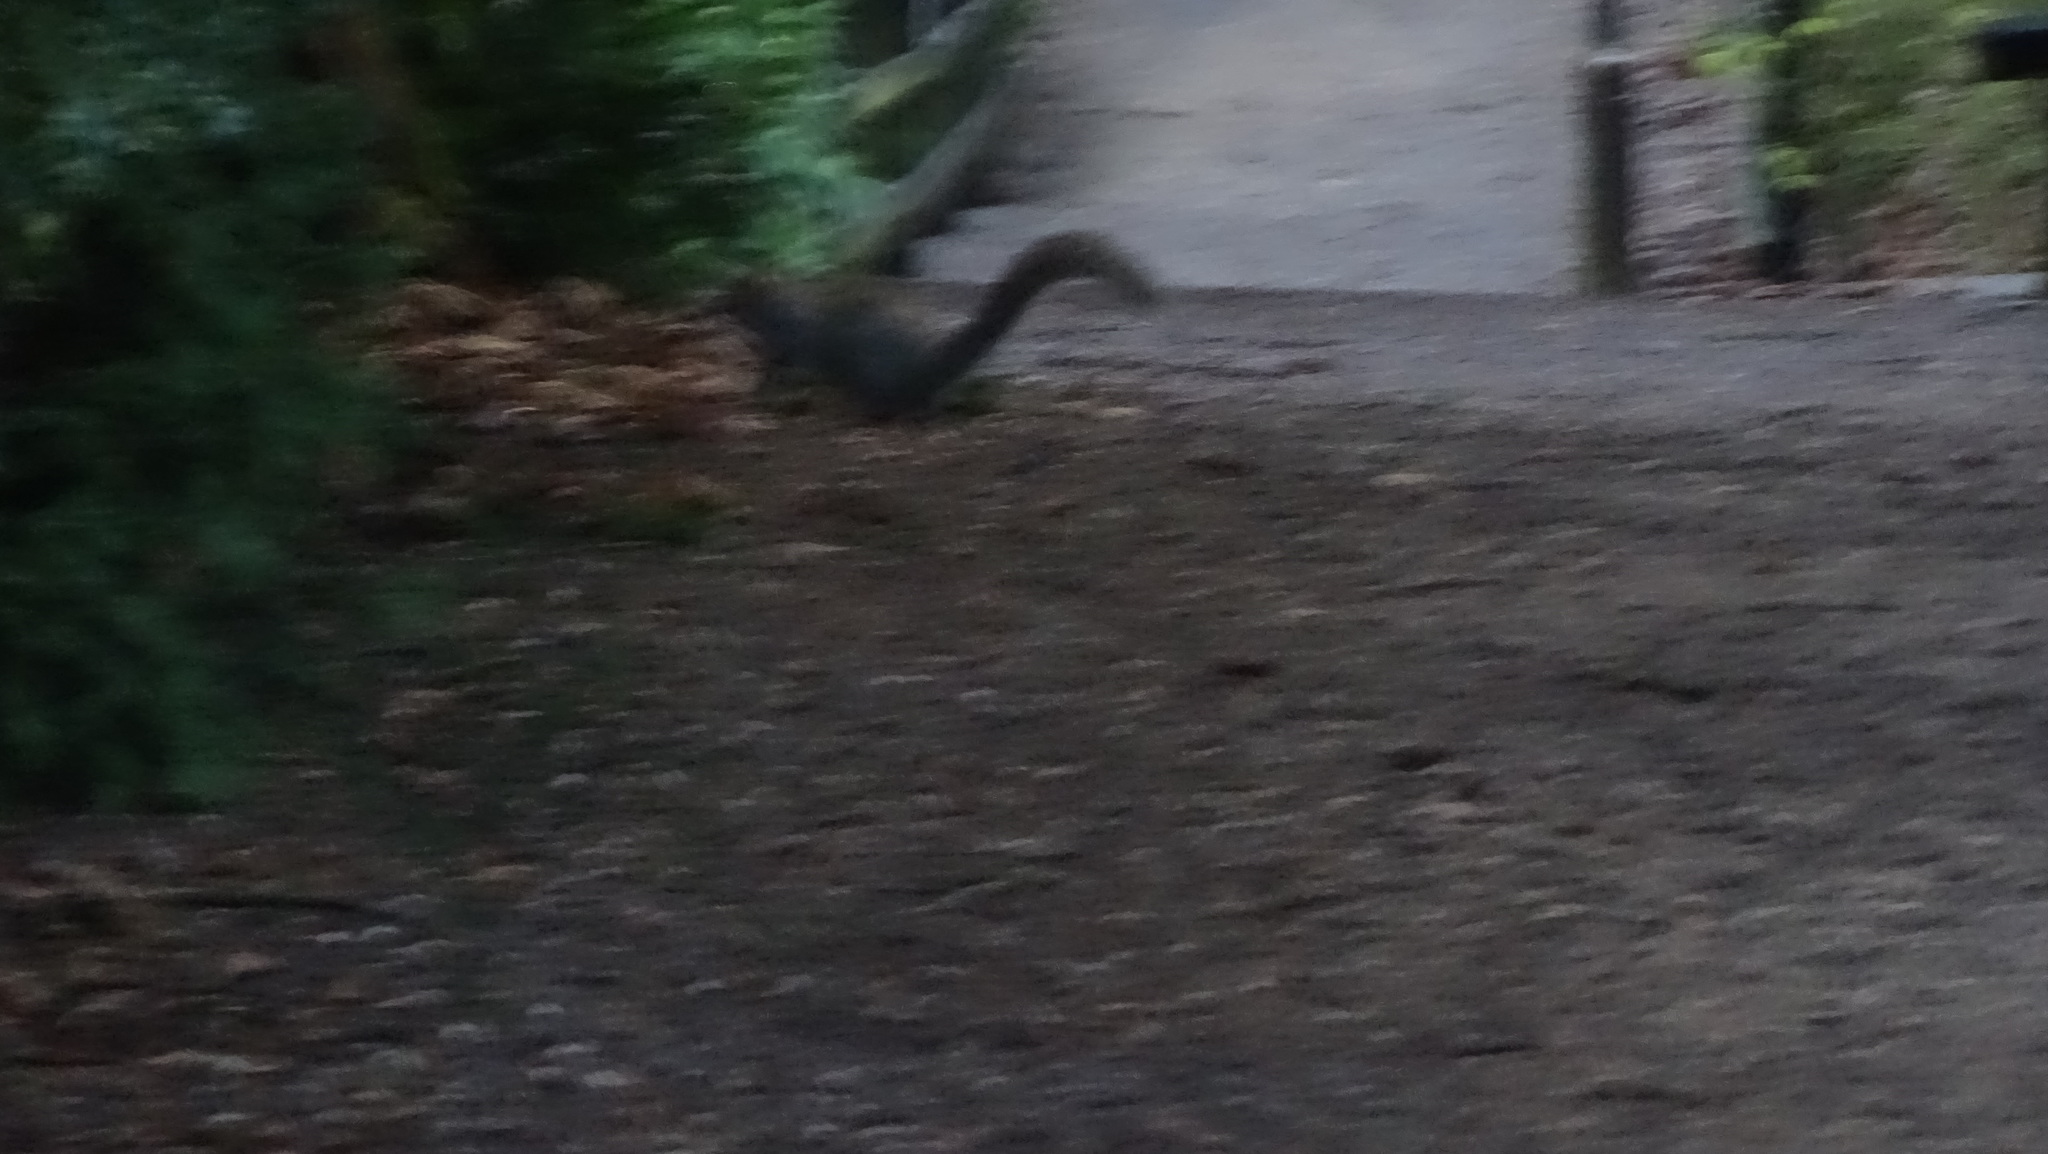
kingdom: Animalia
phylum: Chordata
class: Mammalia
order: Rodentia
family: Sciuridae
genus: Sciurus
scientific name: Sciurus carolinensis
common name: Eastern gray squirrel
